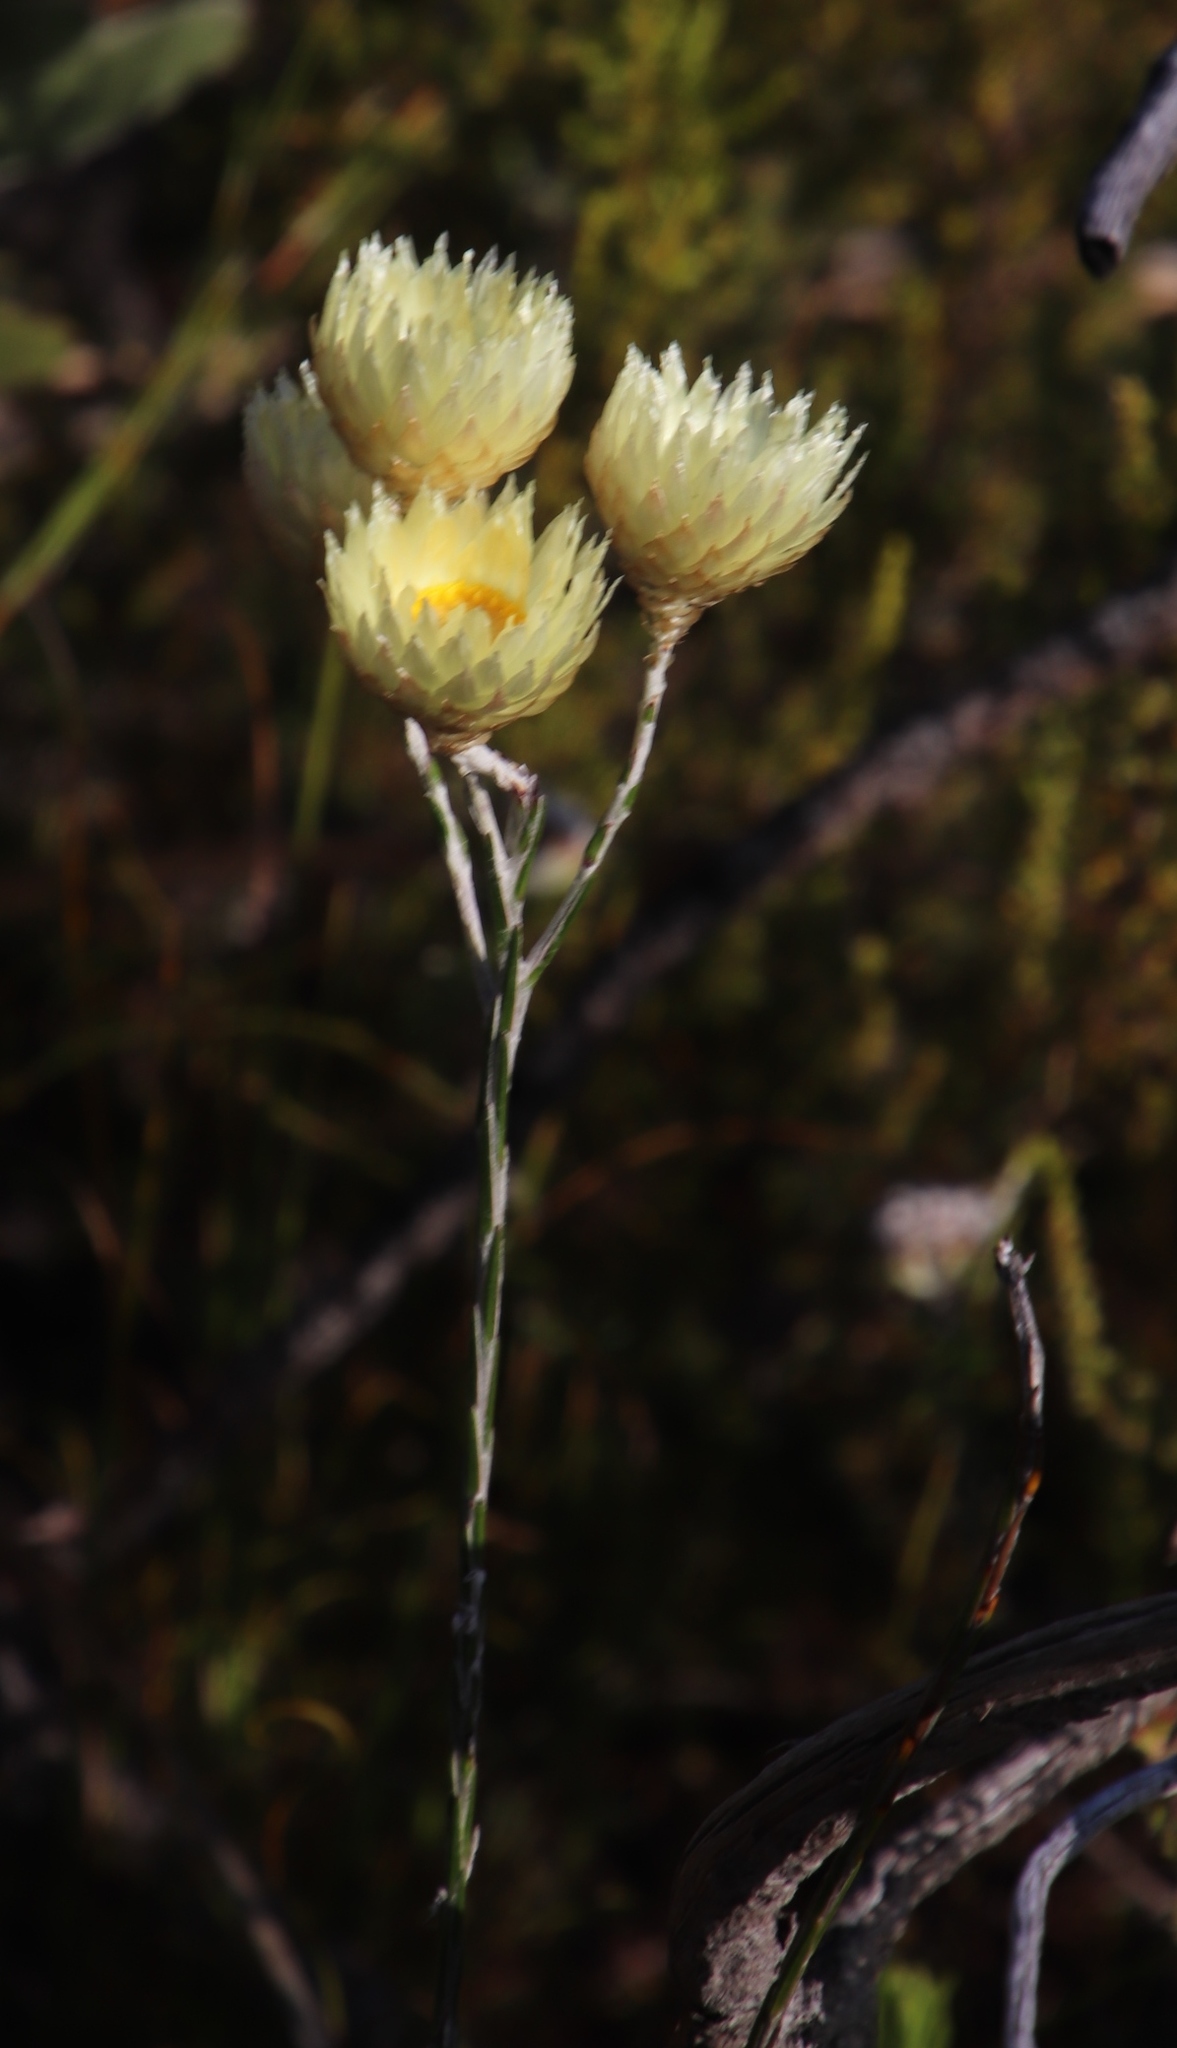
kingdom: Plantae
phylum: Tracheophyta
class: Magnoliopsida
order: Asterales
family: Asteraceae
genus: Edmondia
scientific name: Edmondia sesamoides
